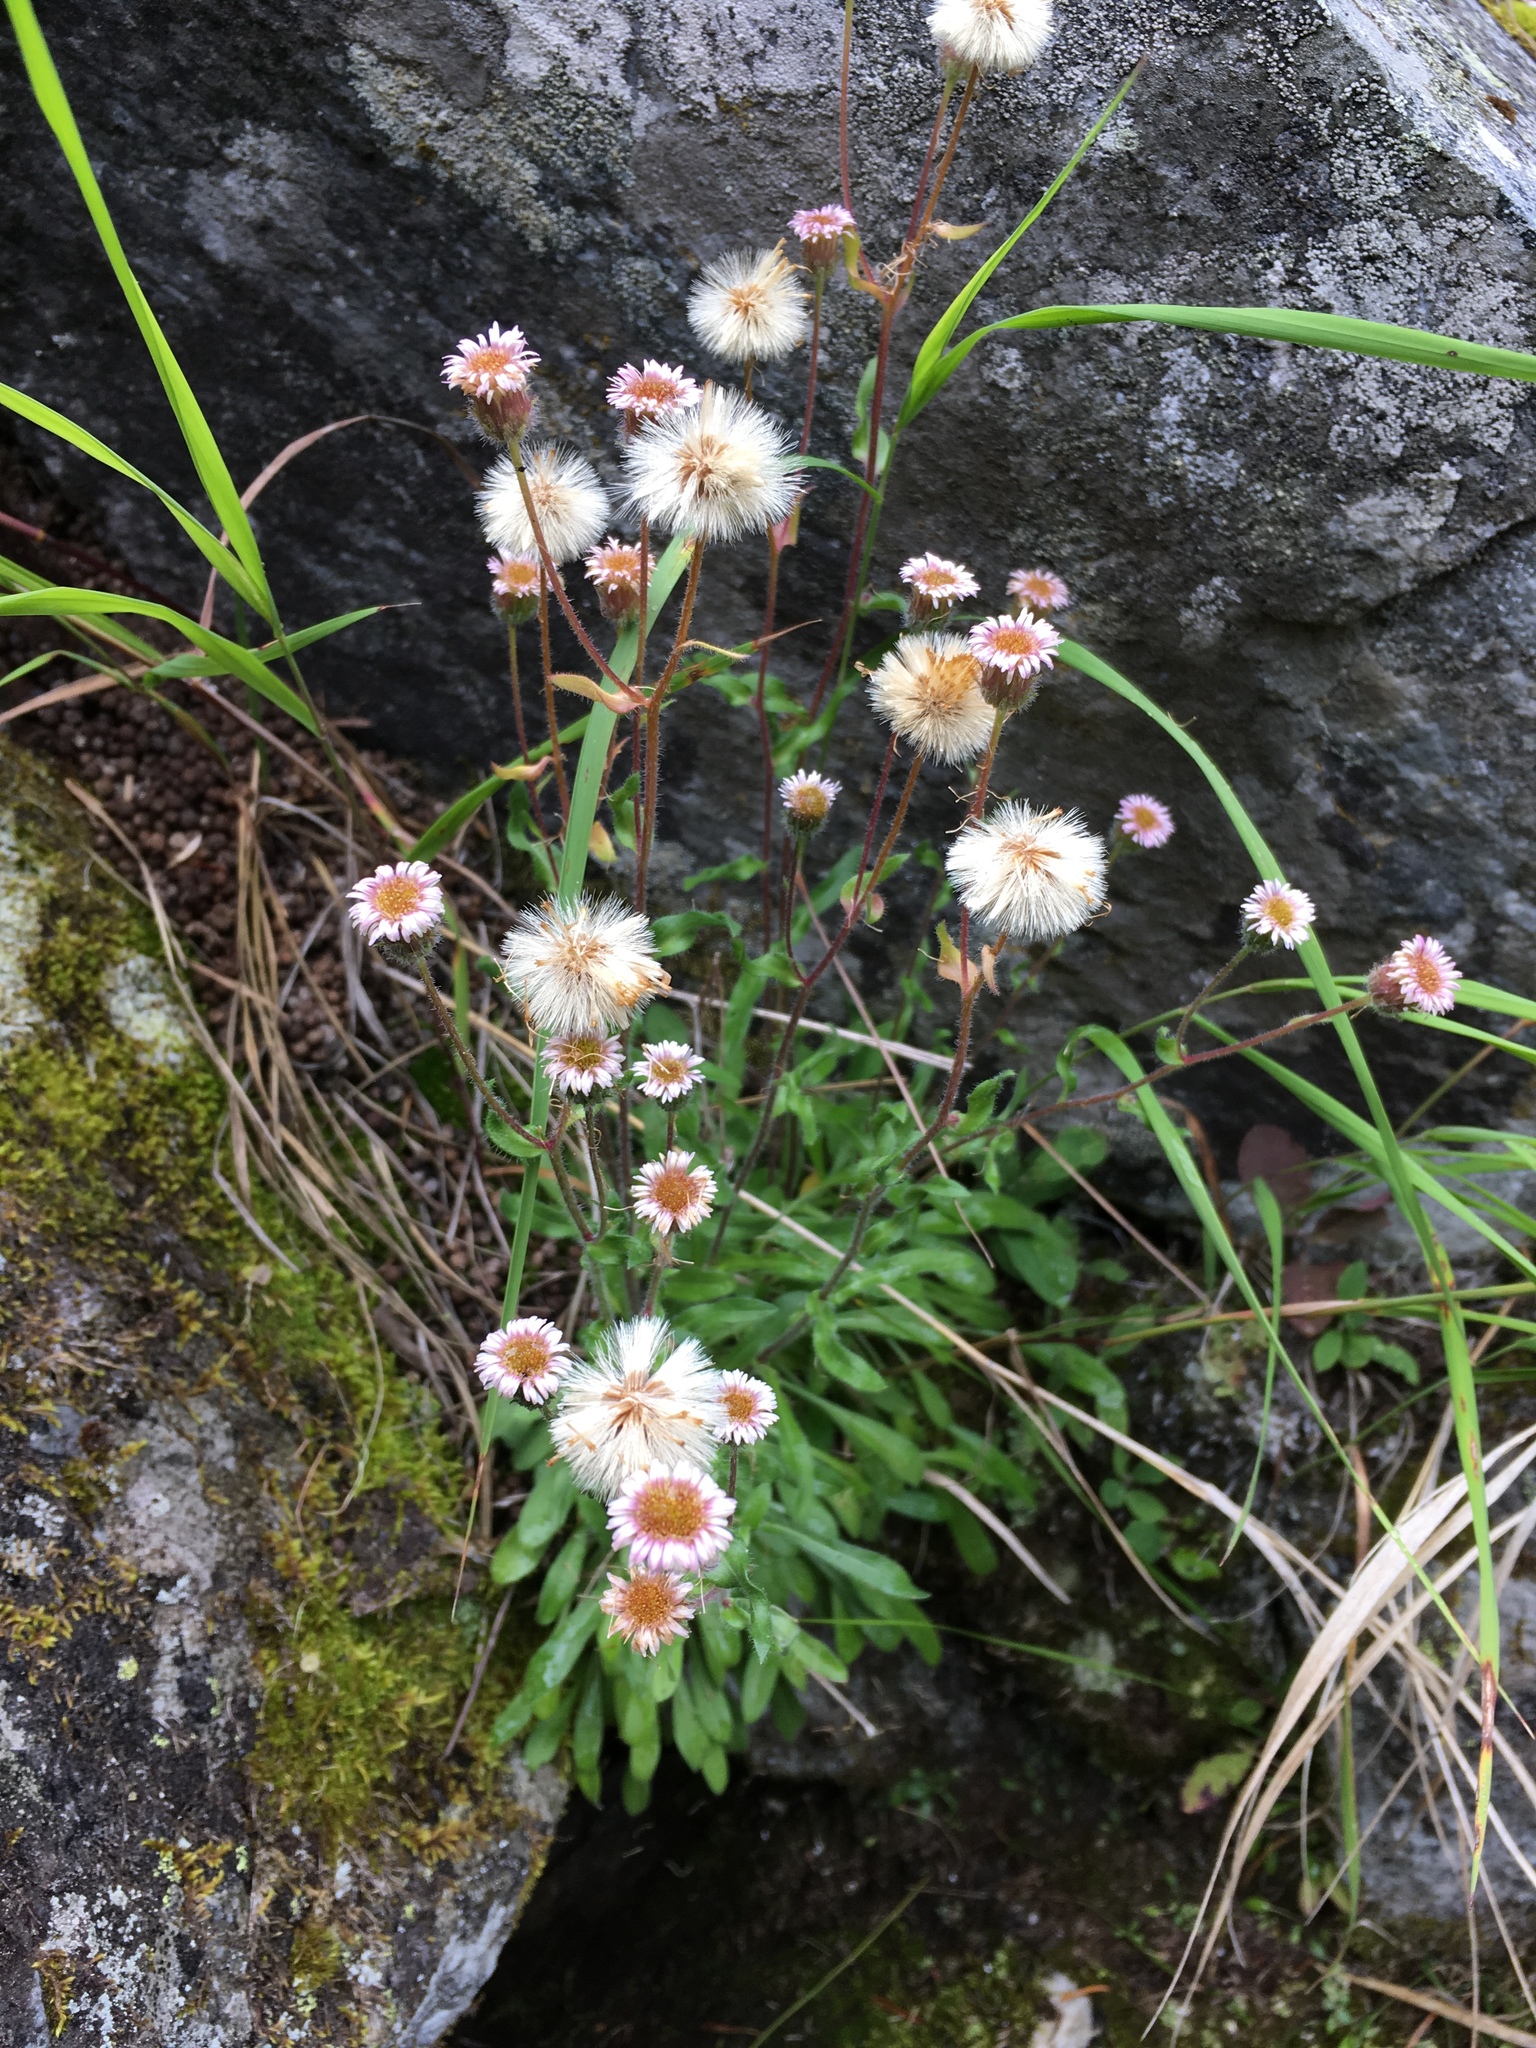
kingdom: Plantae
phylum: Tracheophyta
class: Magnoliopsida
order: Asterales
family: Asteraceae
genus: Erigeron
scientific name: Erigeron nivalis
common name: Snow fleabane
